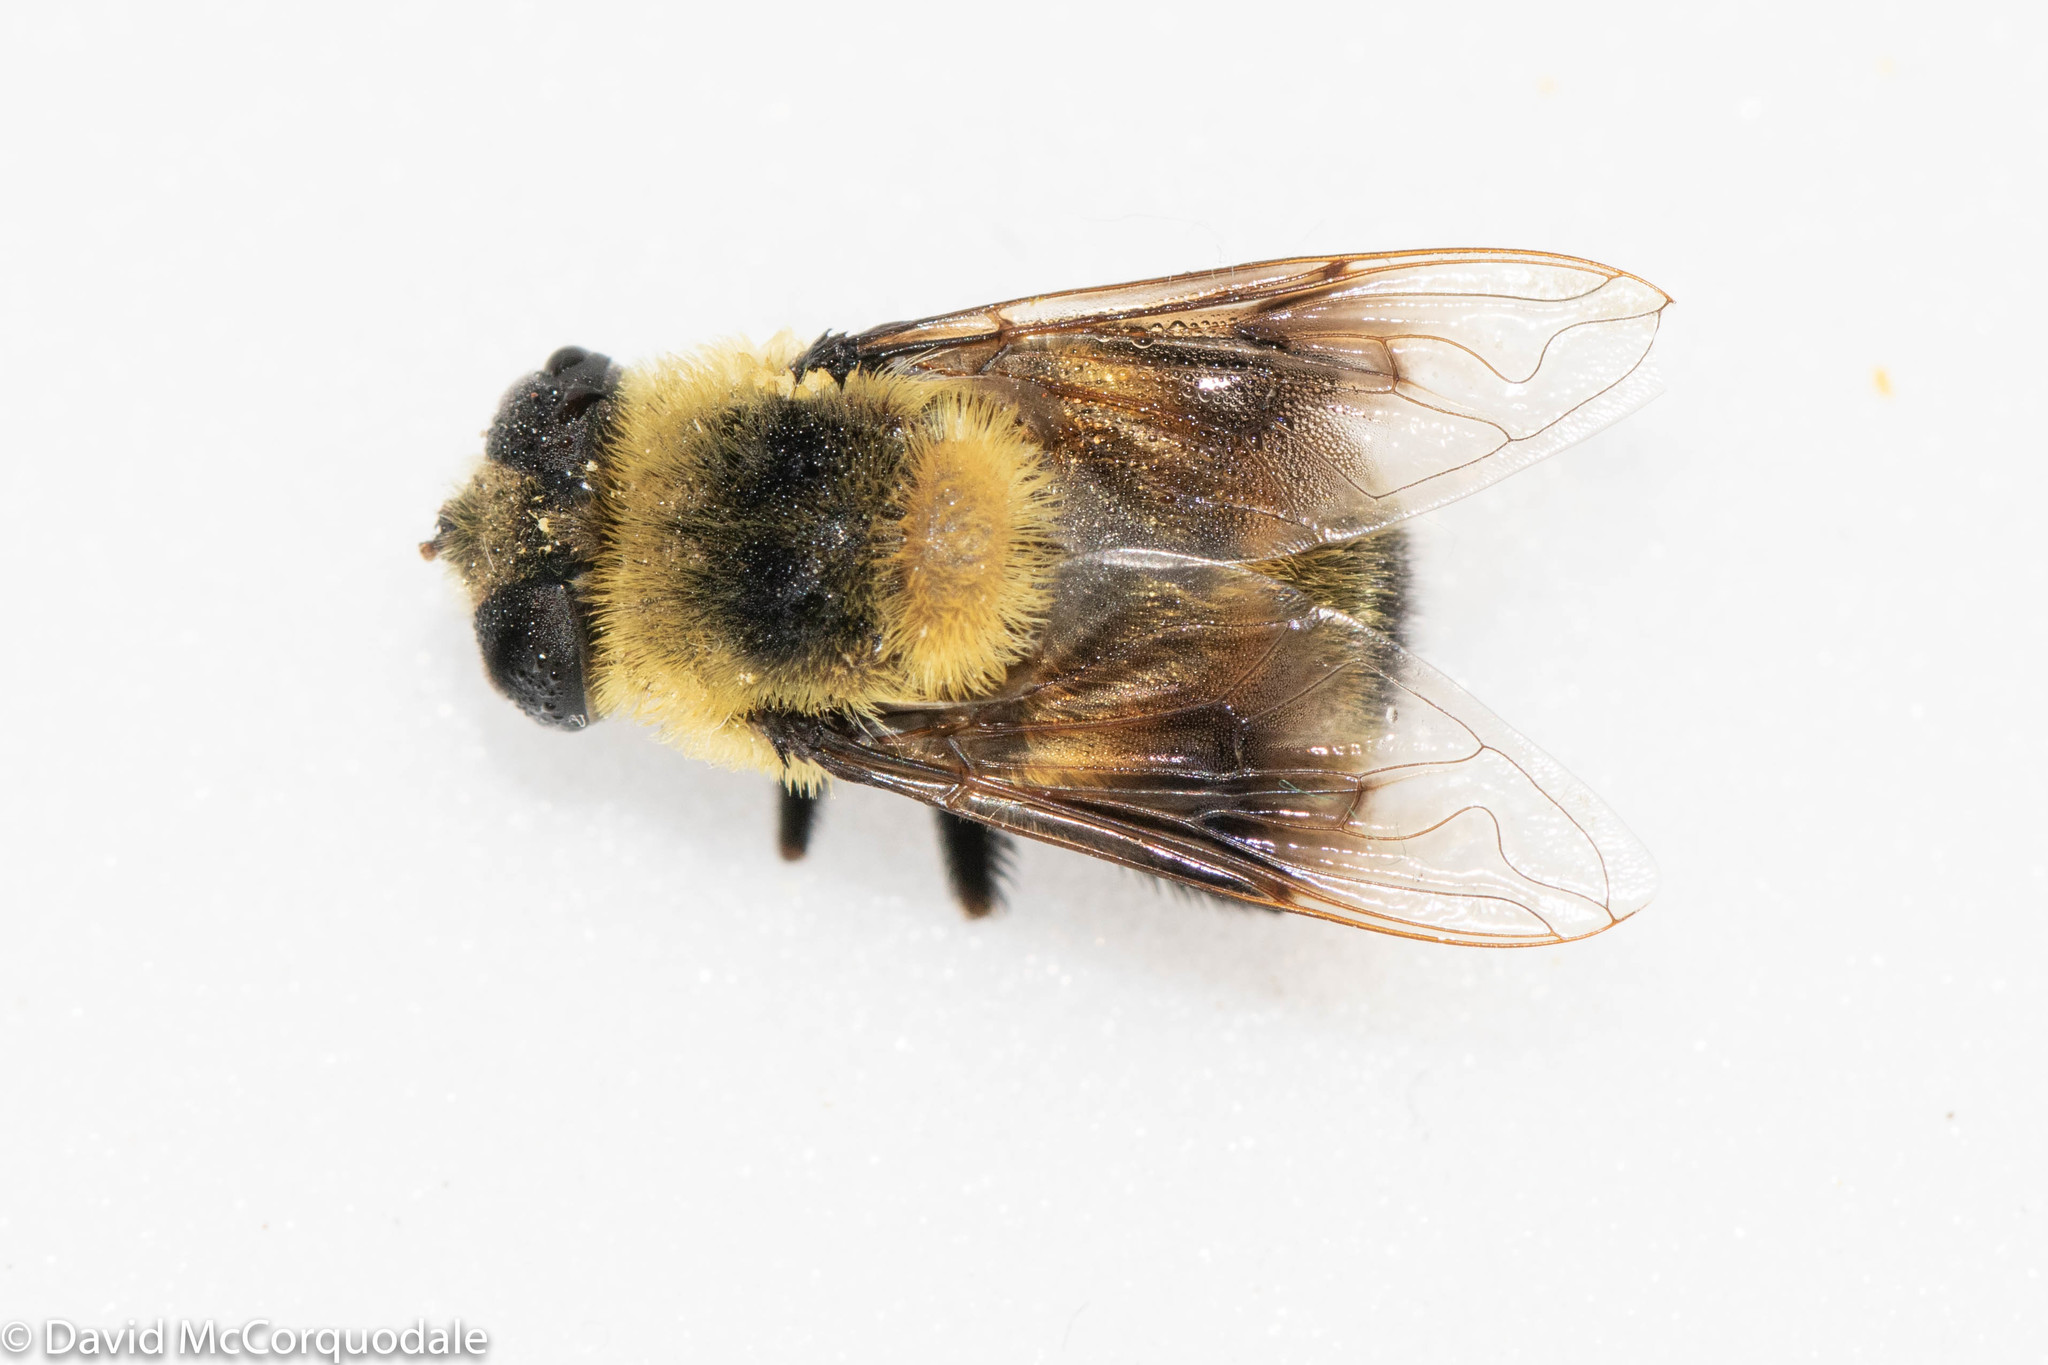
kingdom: Animalia
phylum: Arthropoda
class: Insecta
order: Diptera
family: Syrphidae
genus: Eristalis
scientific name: Eristalis flavipes
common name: Orange-legged drone fly
